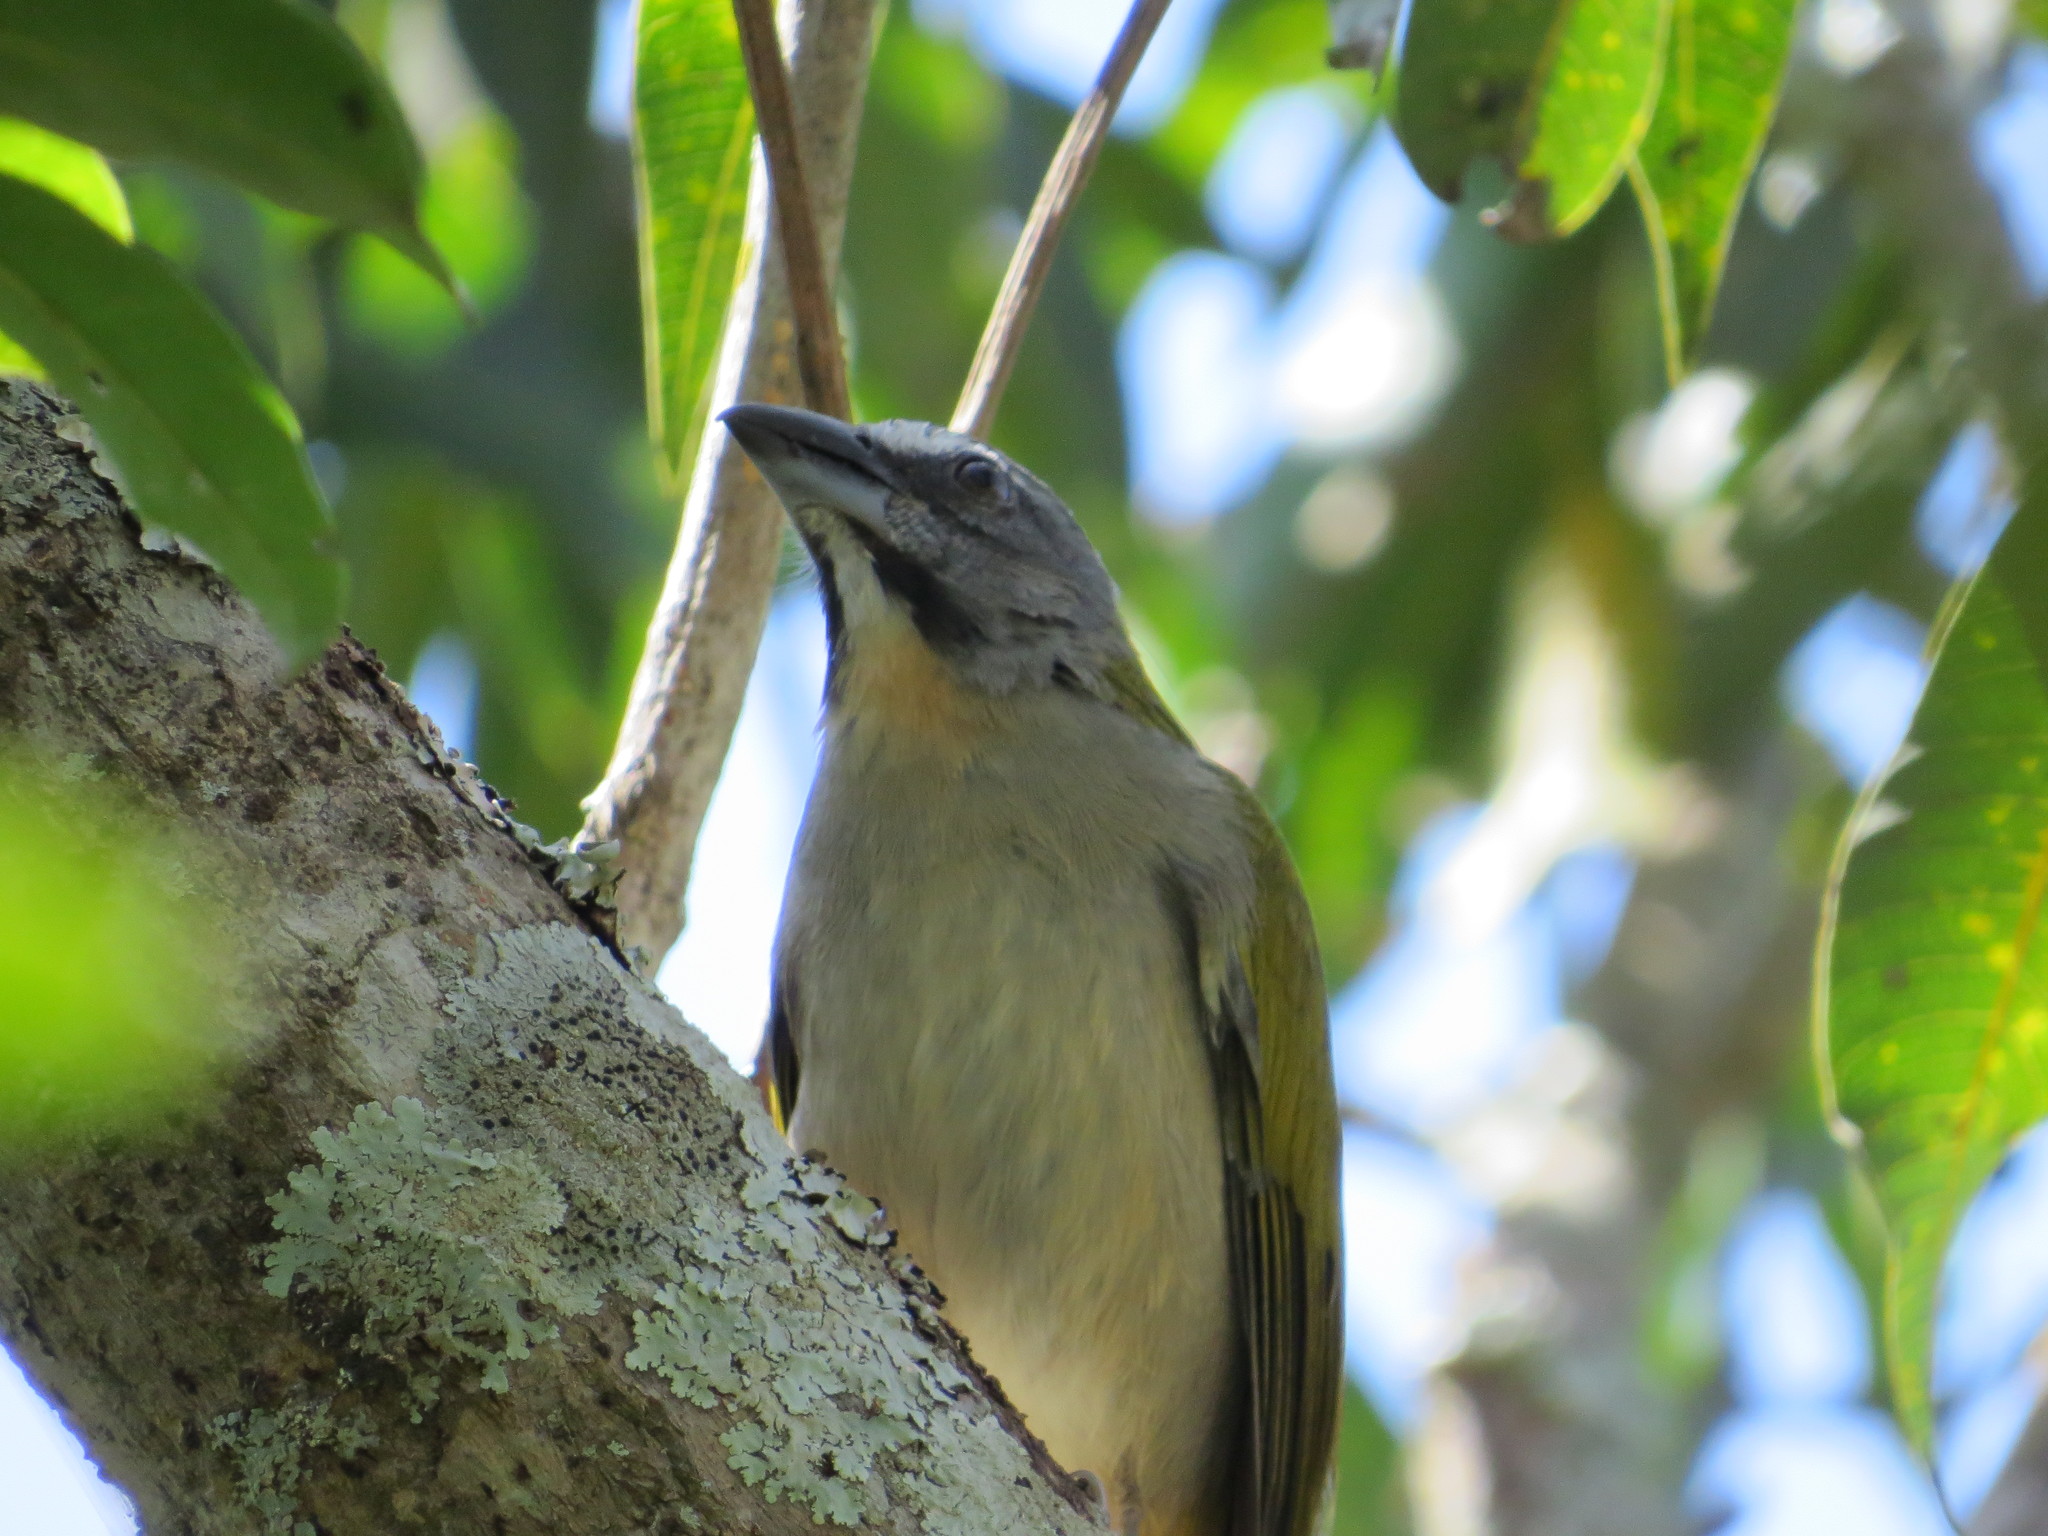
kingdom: Animalia
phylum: Chordata
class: Aves
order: Passeriformes
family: Thraupidae
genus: Saltator
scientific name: Saltator maximus
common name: Buff-throated saltator
